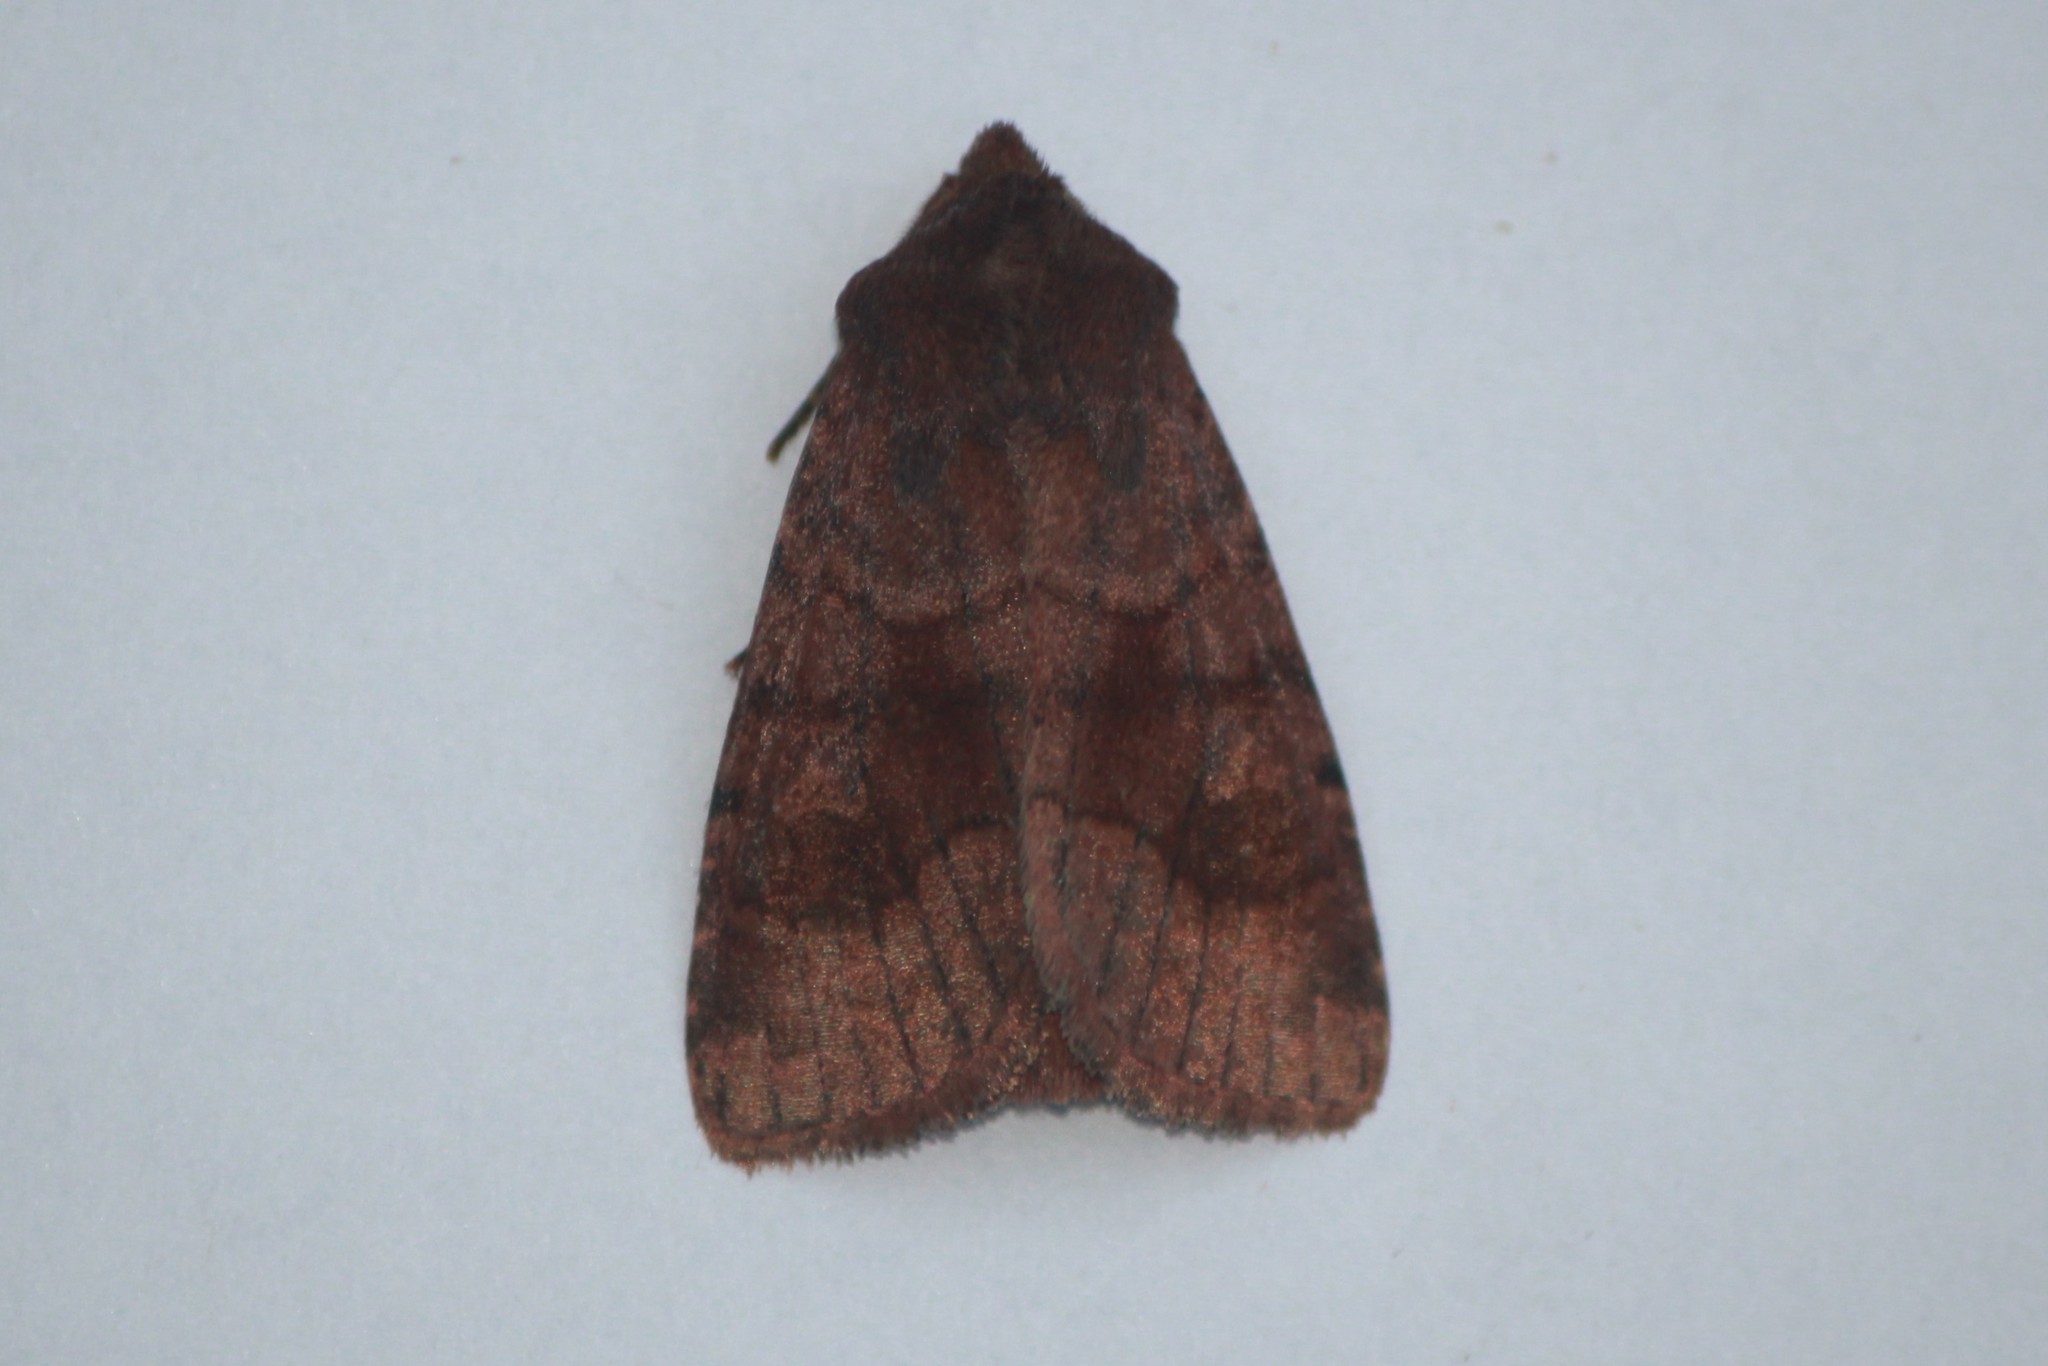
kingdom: Animalia
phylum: Arthropoda
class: Insecta
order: Lepidoptera
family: Noctuidae
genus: Nephelodes
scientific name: Nephelodes minians
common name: Bronzed cutworm
